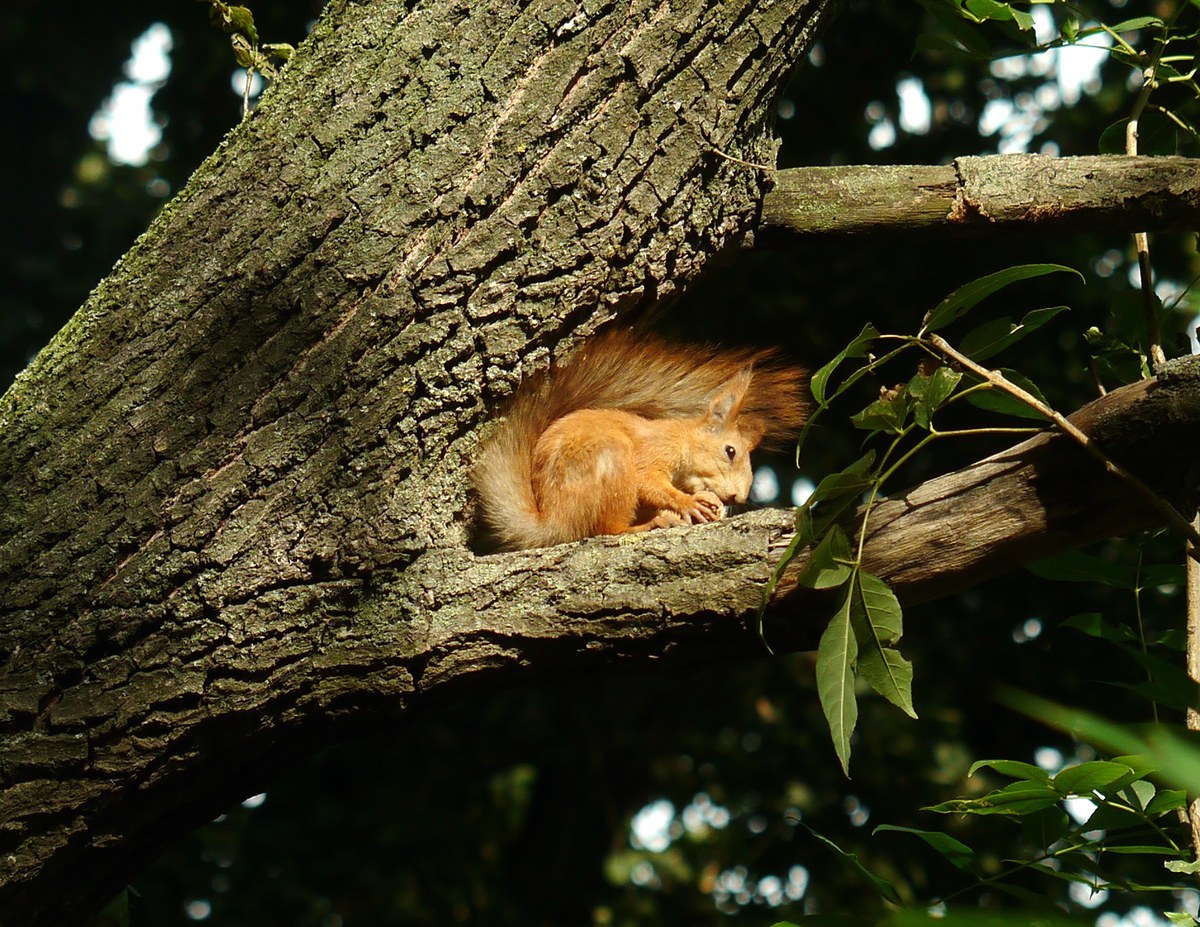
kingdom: Animalia
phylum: Chordata
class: Mammalia
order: Rodentia
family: Sciuridae
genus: Sciurus
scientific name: Sciurus vulgaris
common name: Eurasian red squirrel
